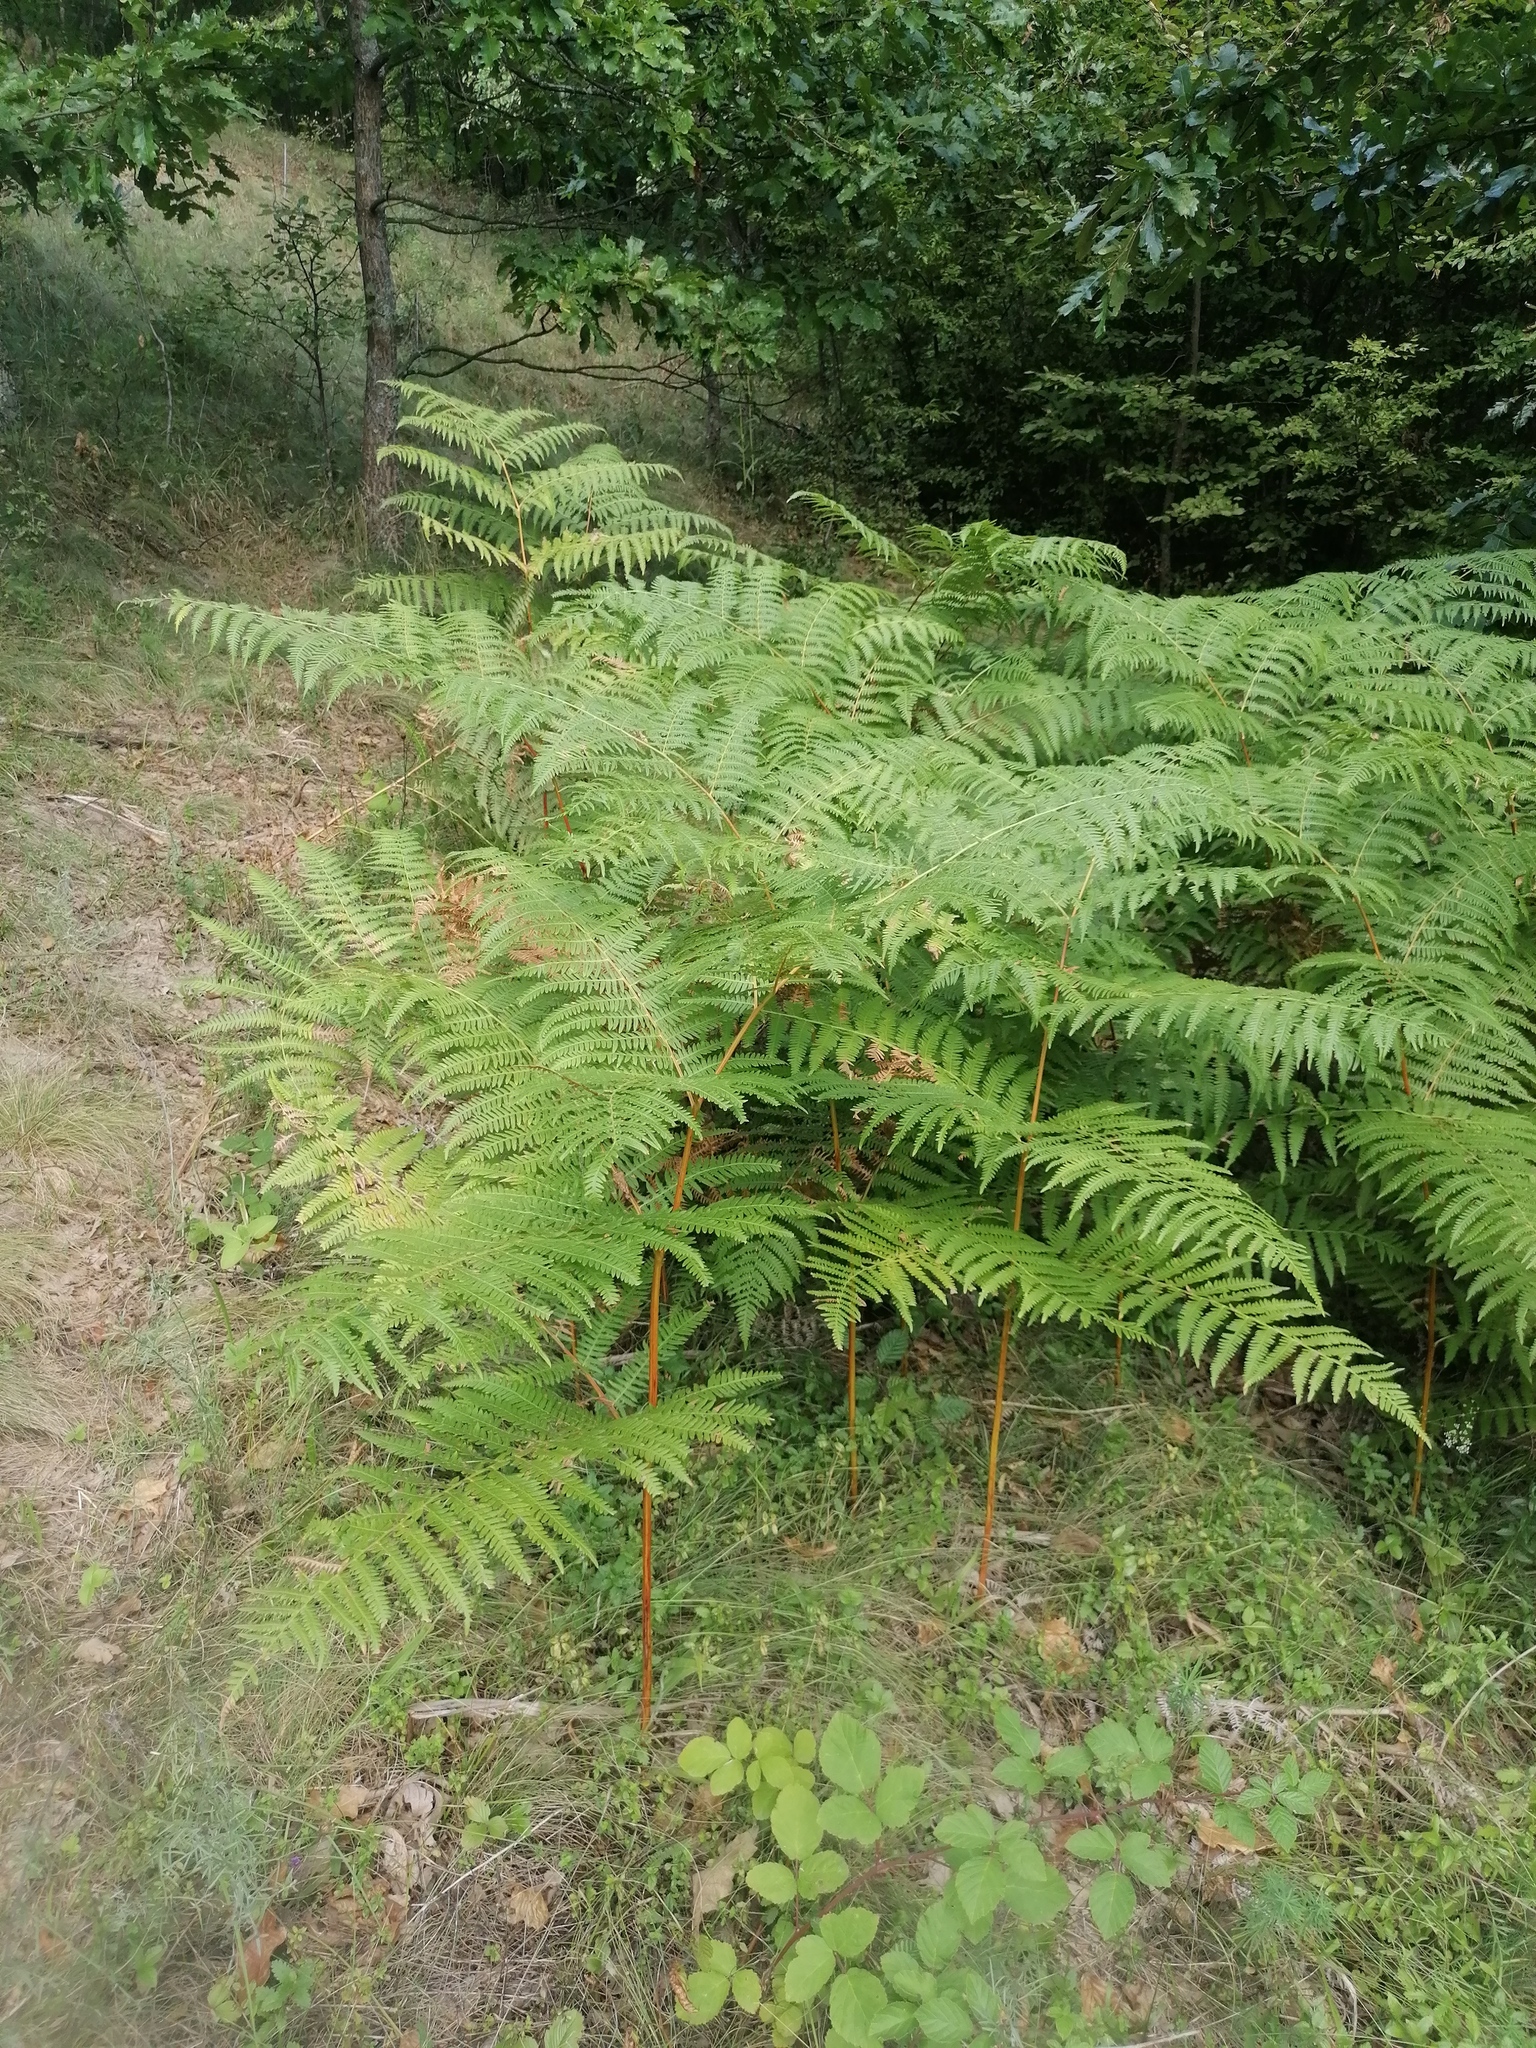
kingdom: Plantae
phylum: Tracheophyta
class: Polypodiopsida
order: Polypodiales
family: Dennstaedtiaceae
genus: Pteridium
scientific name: Pteridium aquilinum
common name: Bracken
